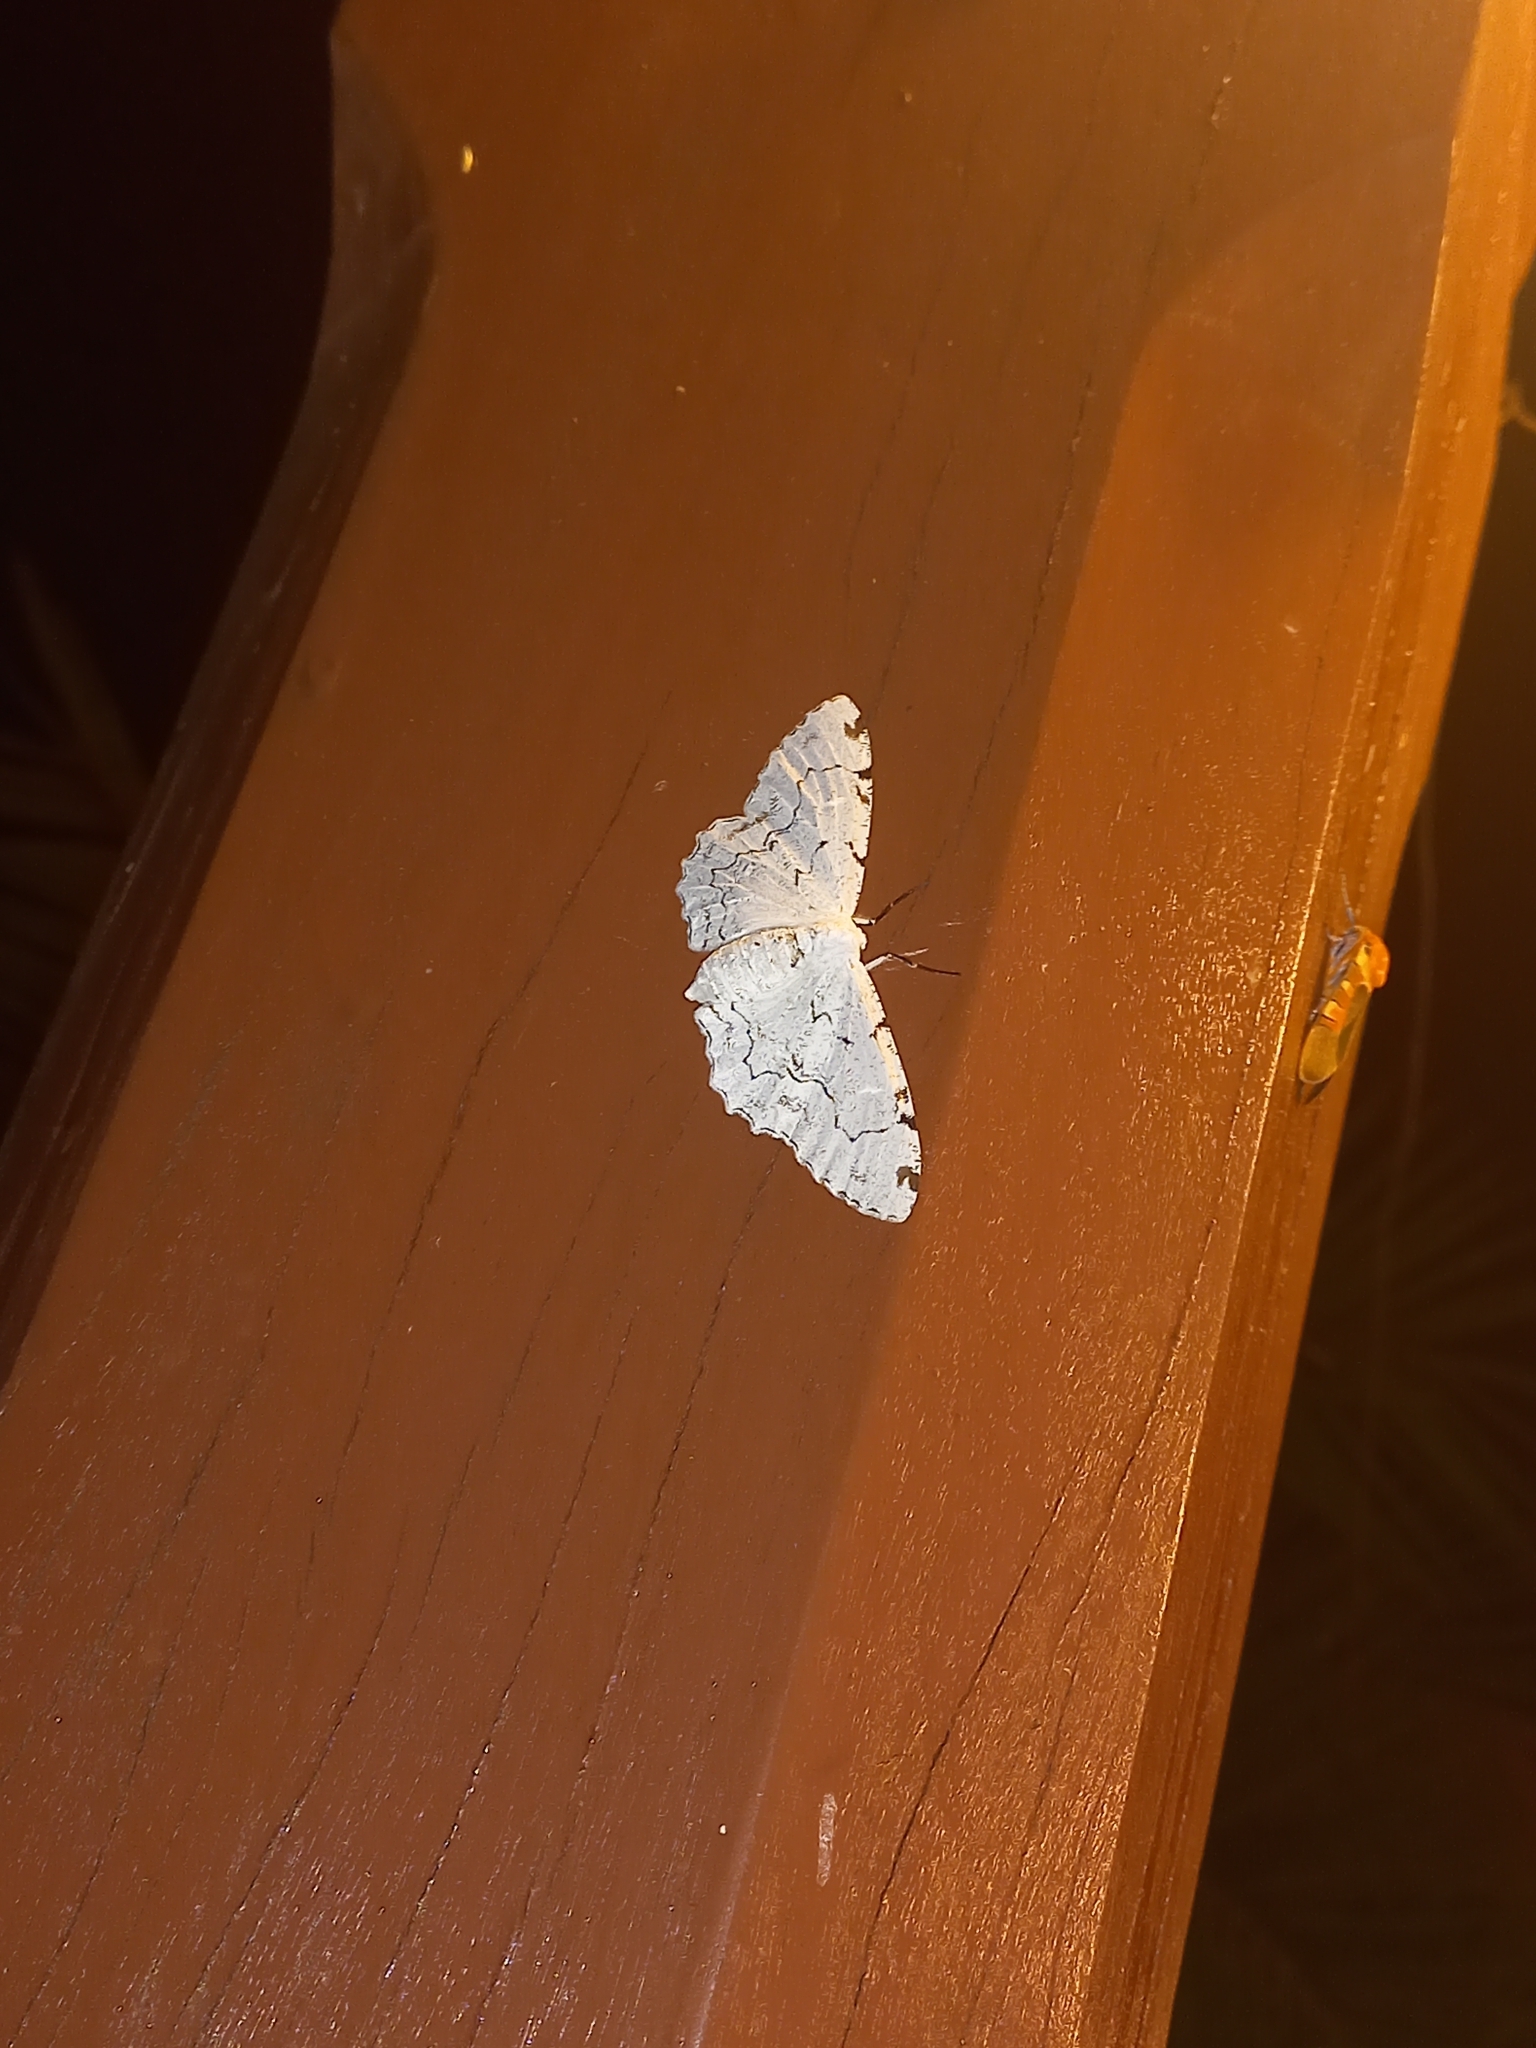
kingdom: Animalia
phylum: Arthropoda
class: Insecta
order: Lepidoptera
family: Geometridae
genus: Thyrinteina
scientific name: Thyrinteina arnobia
